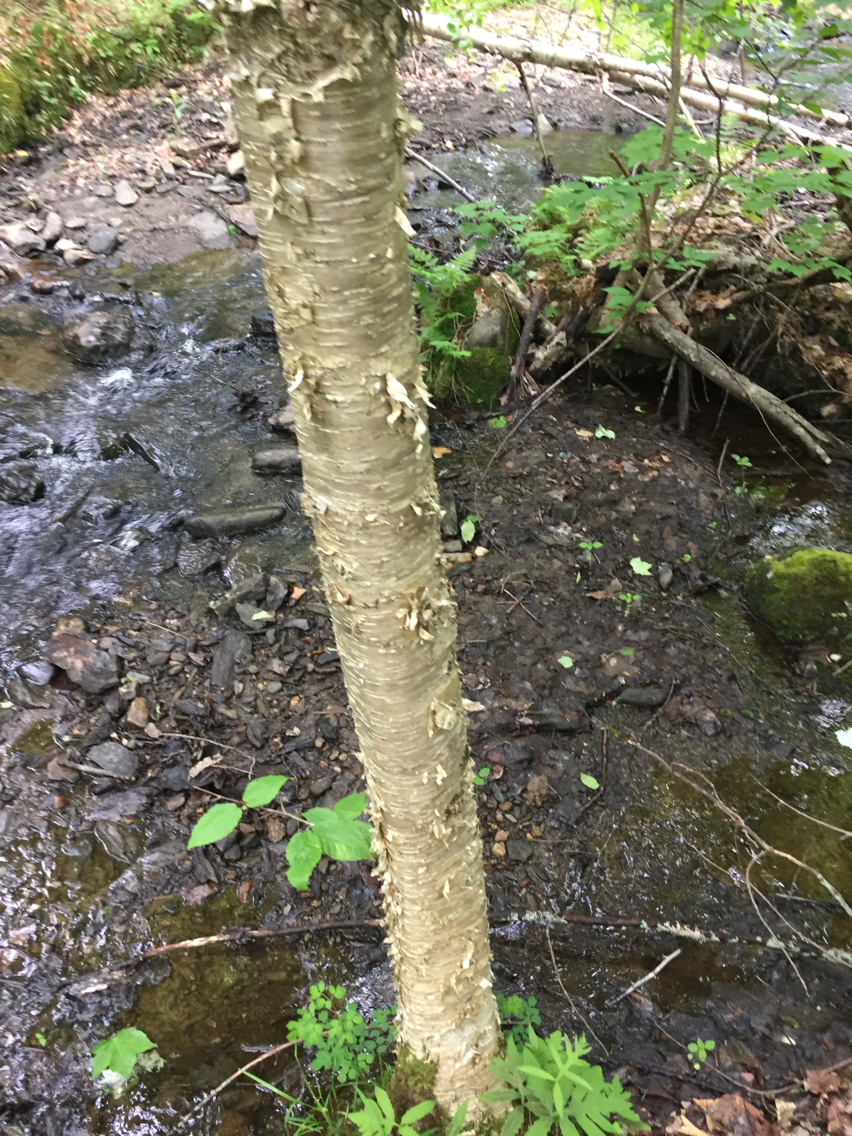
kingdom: Plantae
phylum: Tracheophyta
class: Magnoliopsida
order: Fagales
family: Betulaceae
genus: Betula
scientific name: Betula alleghaniensis
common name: Yellow birch
